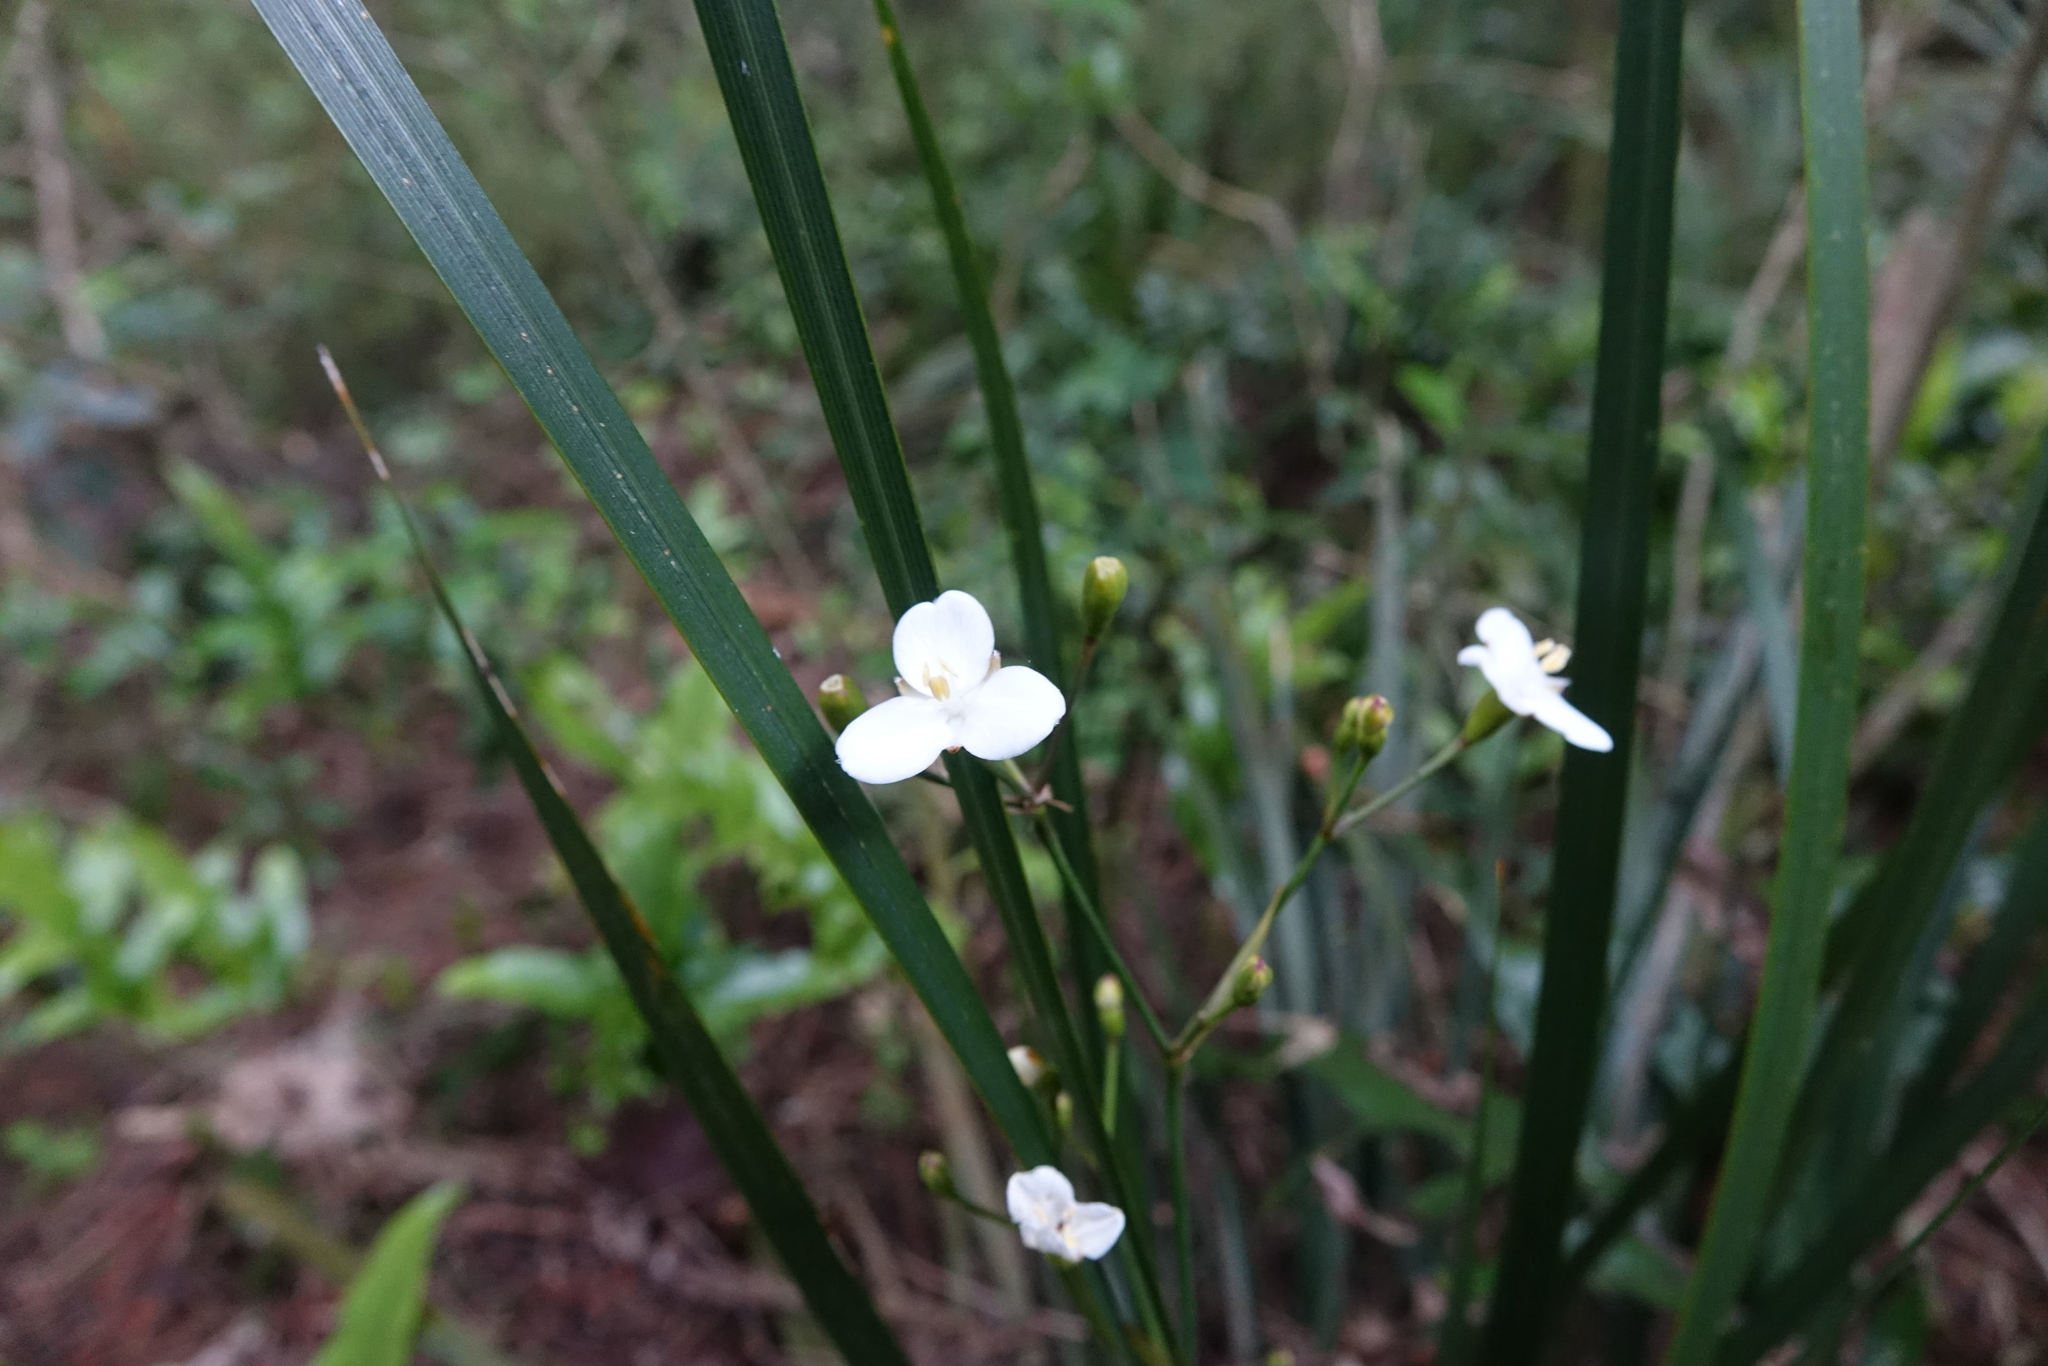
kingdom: Plantae
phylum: Tracheophyta
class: Liliopsida
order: Asparagales
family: Iridaceae
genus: Libertia
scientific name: Libertia ixioides
